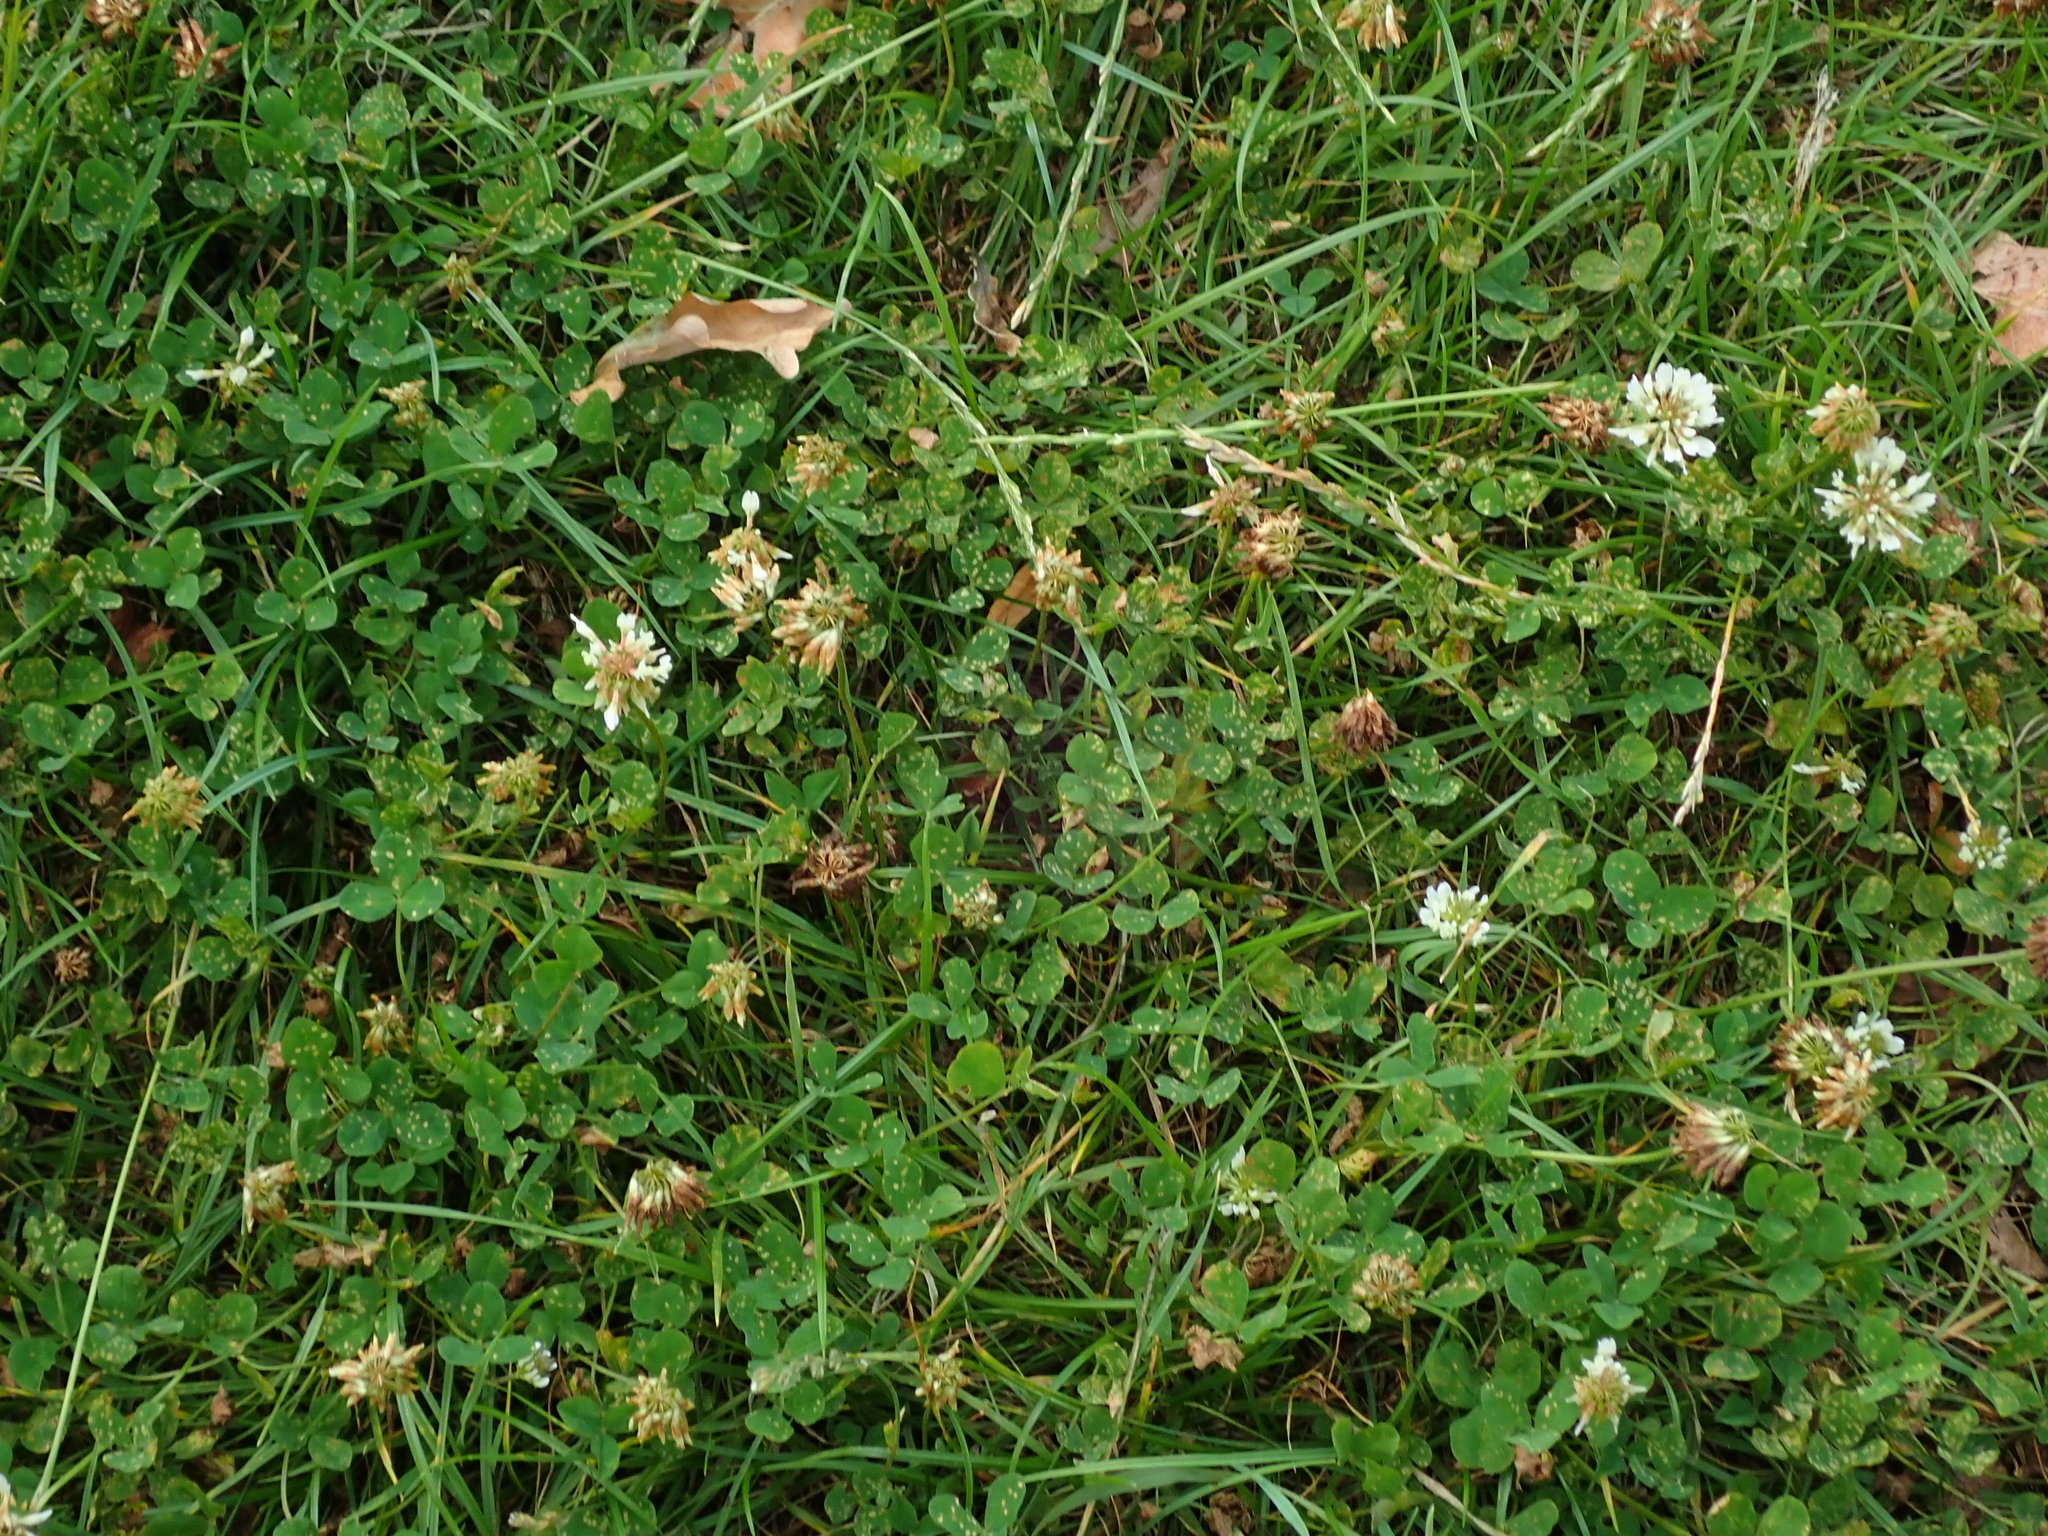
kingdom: Plantae
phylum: Tracheophyta
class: Magnoliopsida
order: Fabales
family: Fabaceae
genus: Trifolium
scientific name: Trifolium repens
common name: White clover
